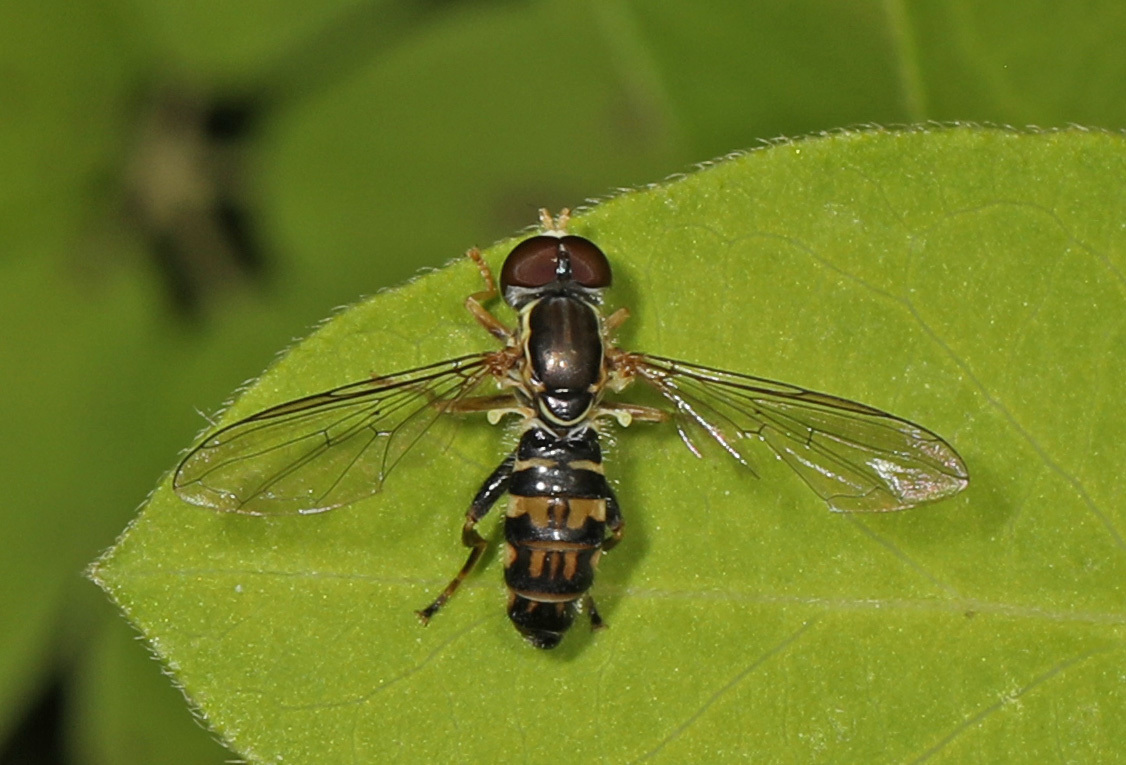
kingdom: Animalia
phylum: Arthropoda
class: Insecta
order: Diptera
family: Syrphidae
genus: Toxomerus
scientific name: Toxomerus geminatus
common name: Eastern calligrapher
